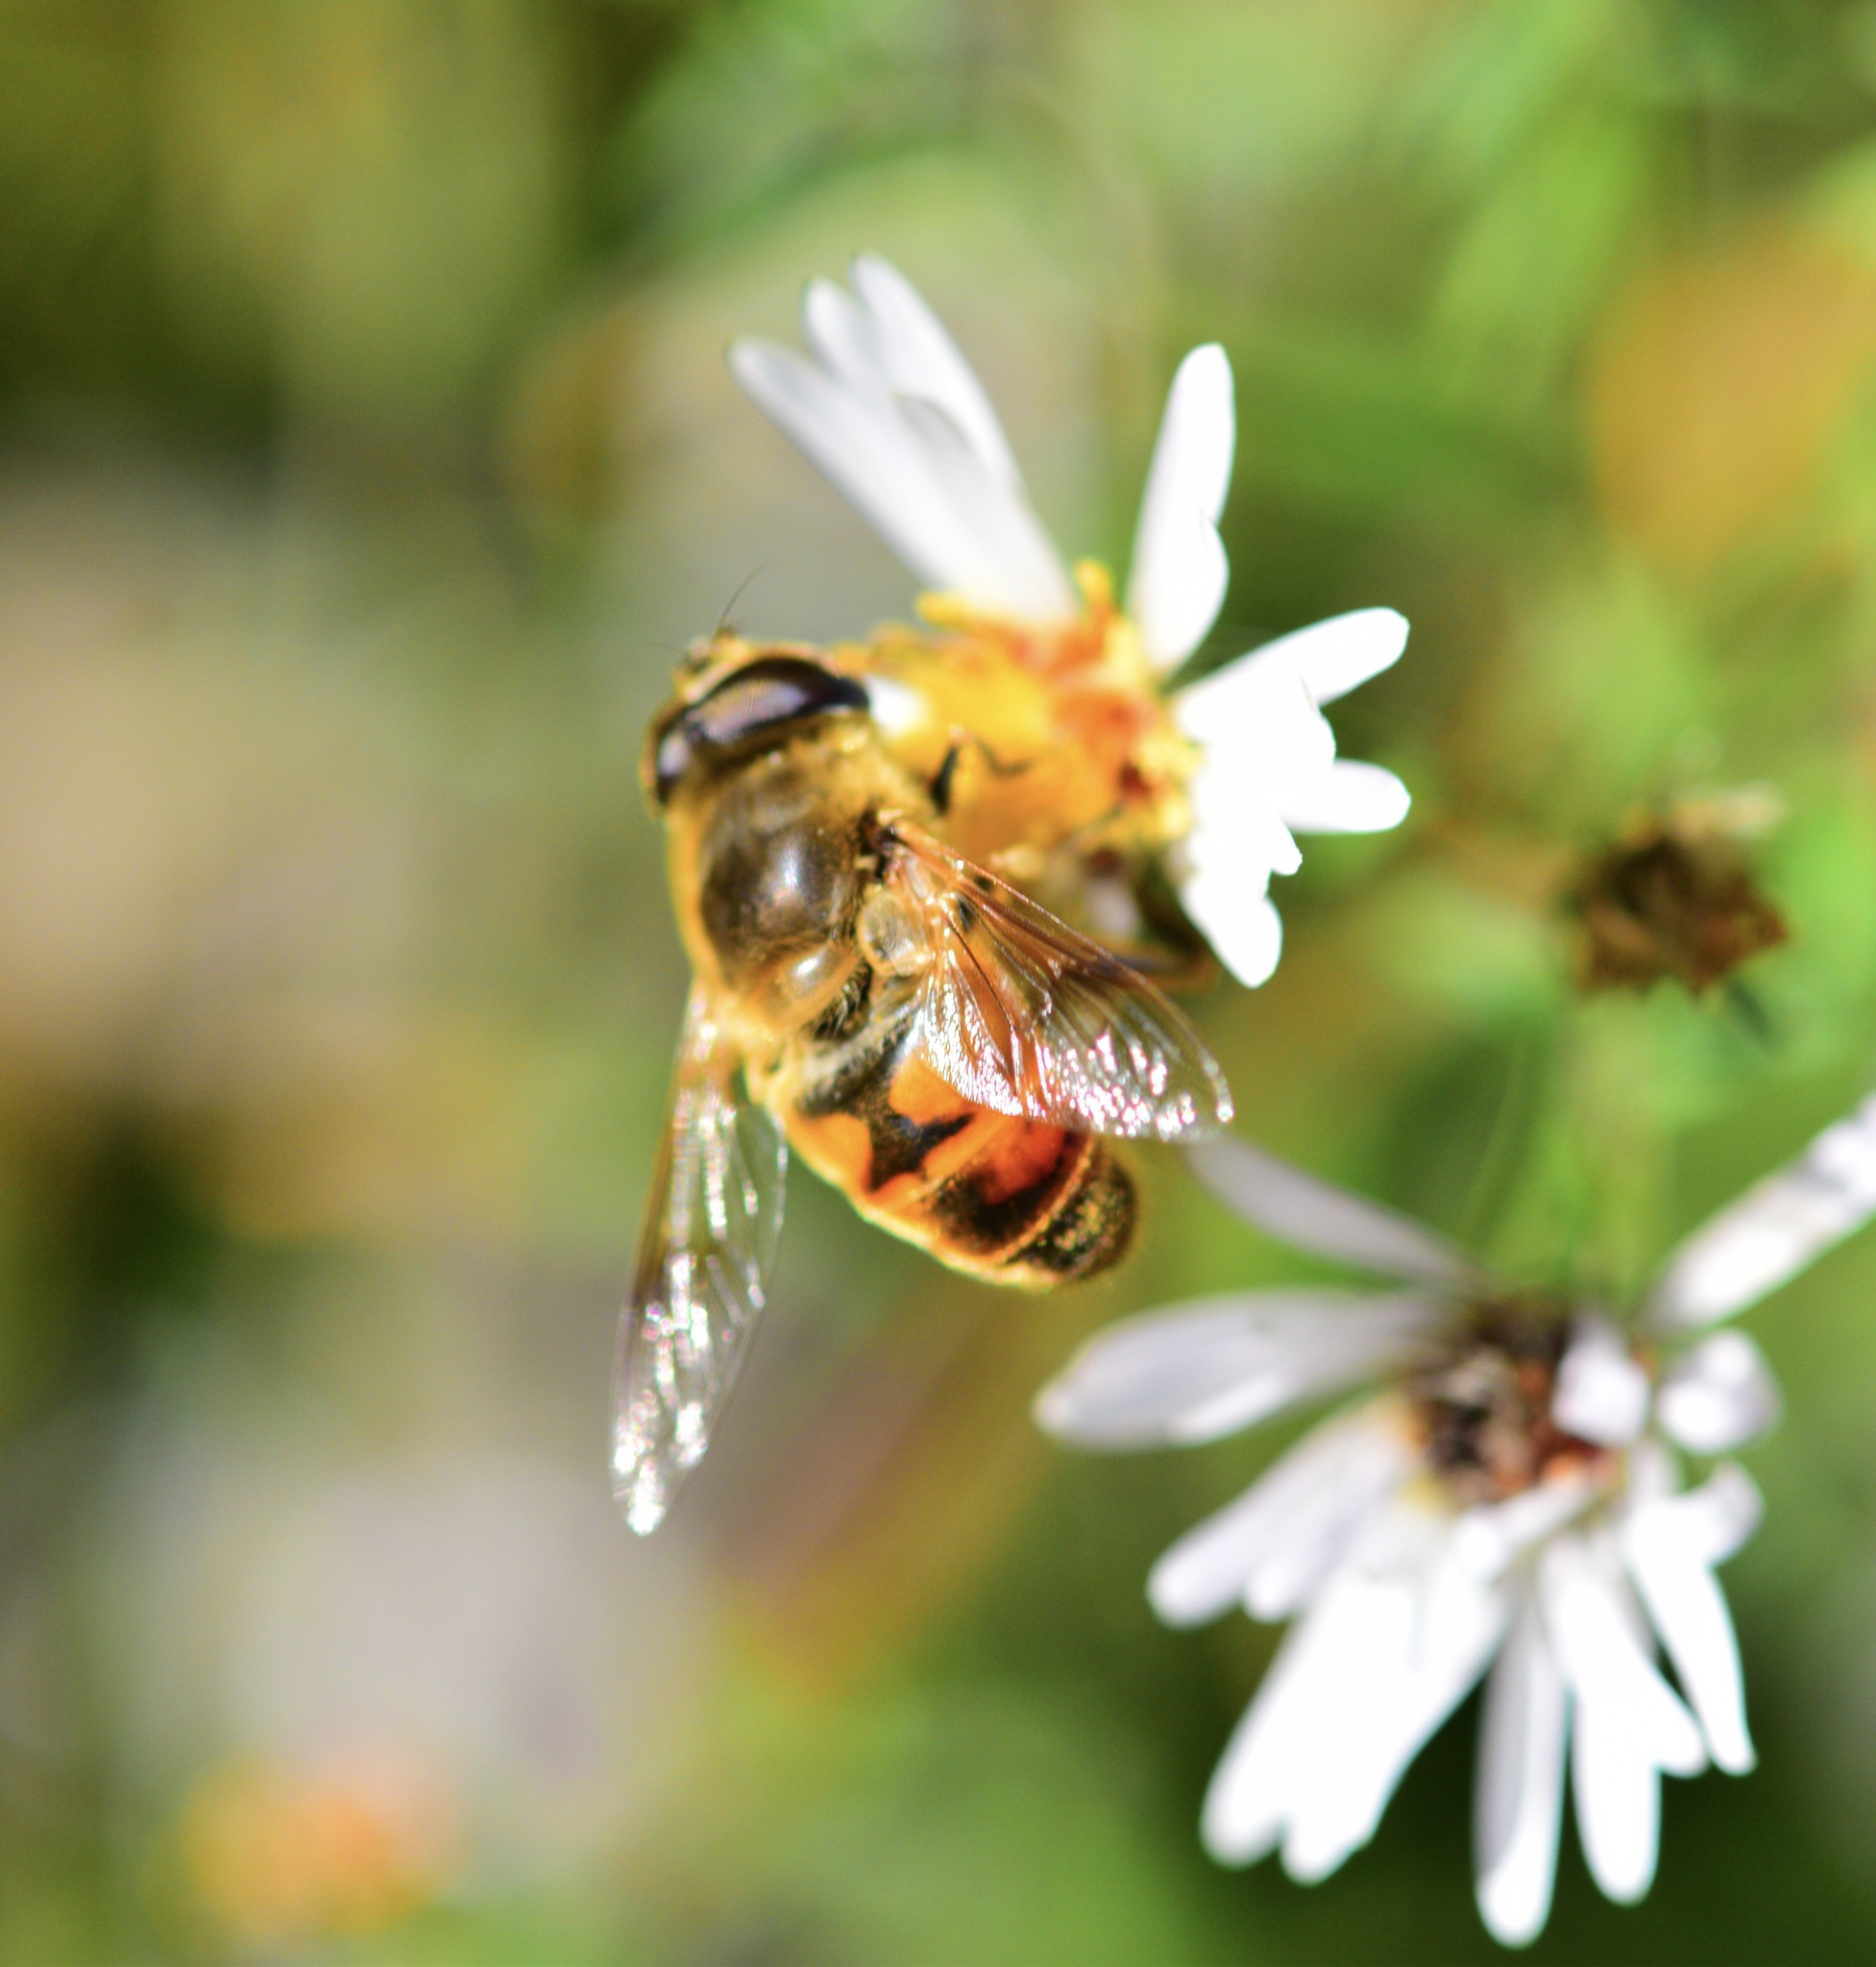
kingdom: Animalia
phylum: Arthropoda
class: Insecta
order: Diptera
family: Syrphidae
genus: Eristalis
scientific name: Eristalis tenax
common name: Drone fly
